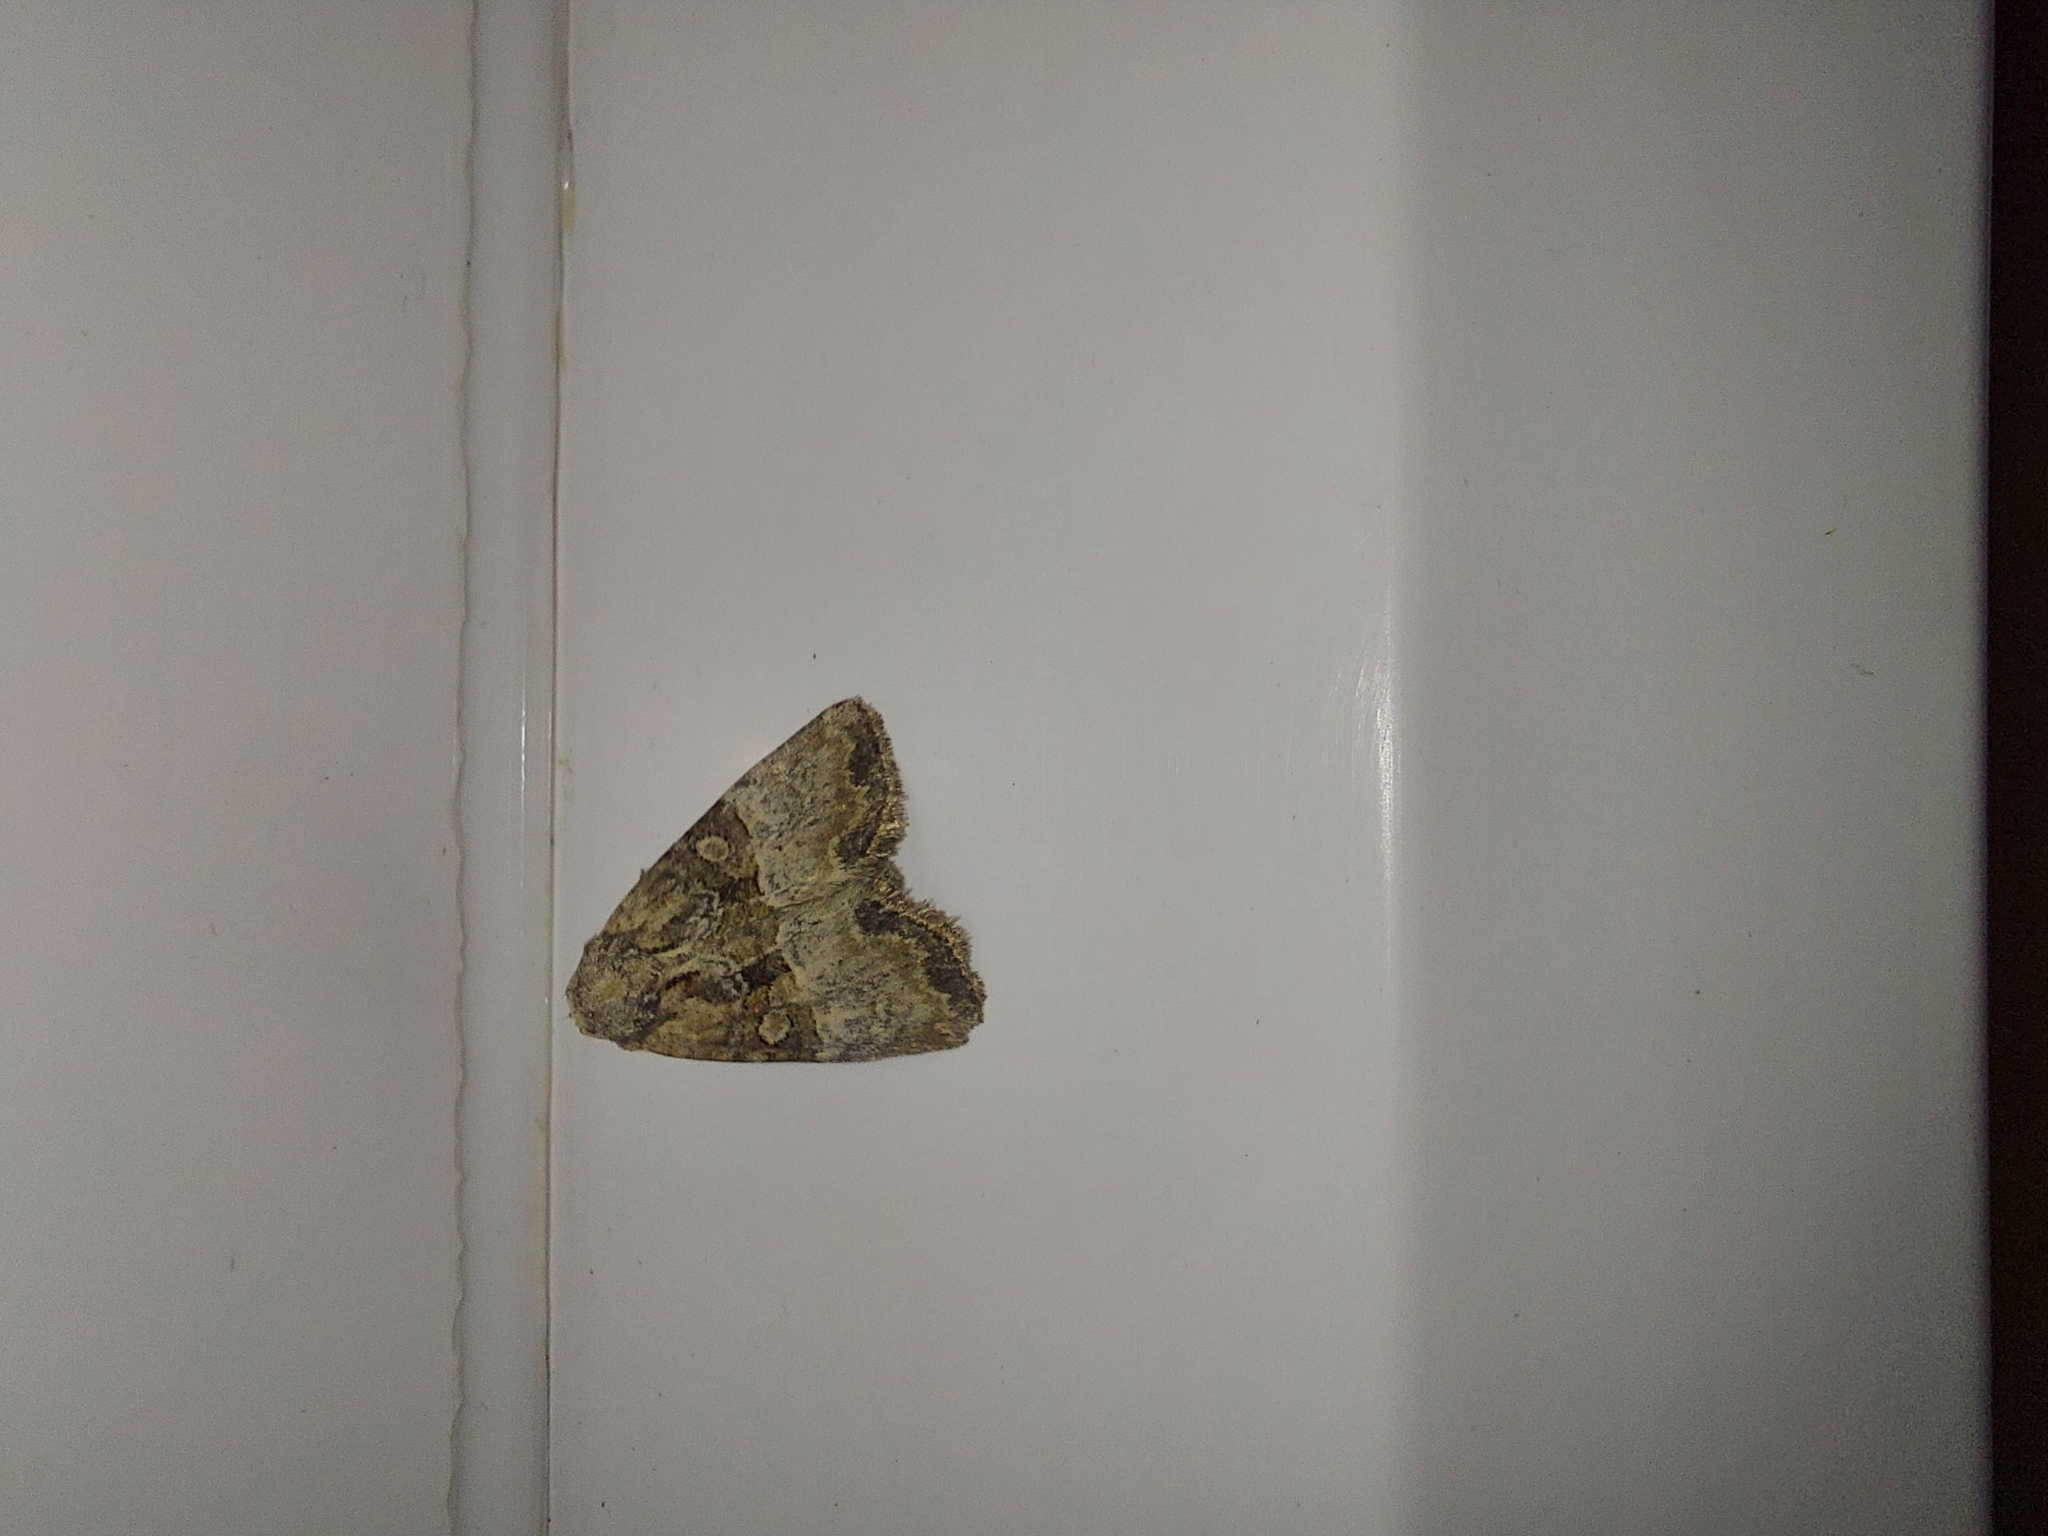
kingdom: Animalia
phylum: Arthropoda
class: Insecta
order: Lepidoptera
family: Noctuidae
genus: Mesoligia
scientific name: Mesoligia furuncula
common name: Cloaked minor
